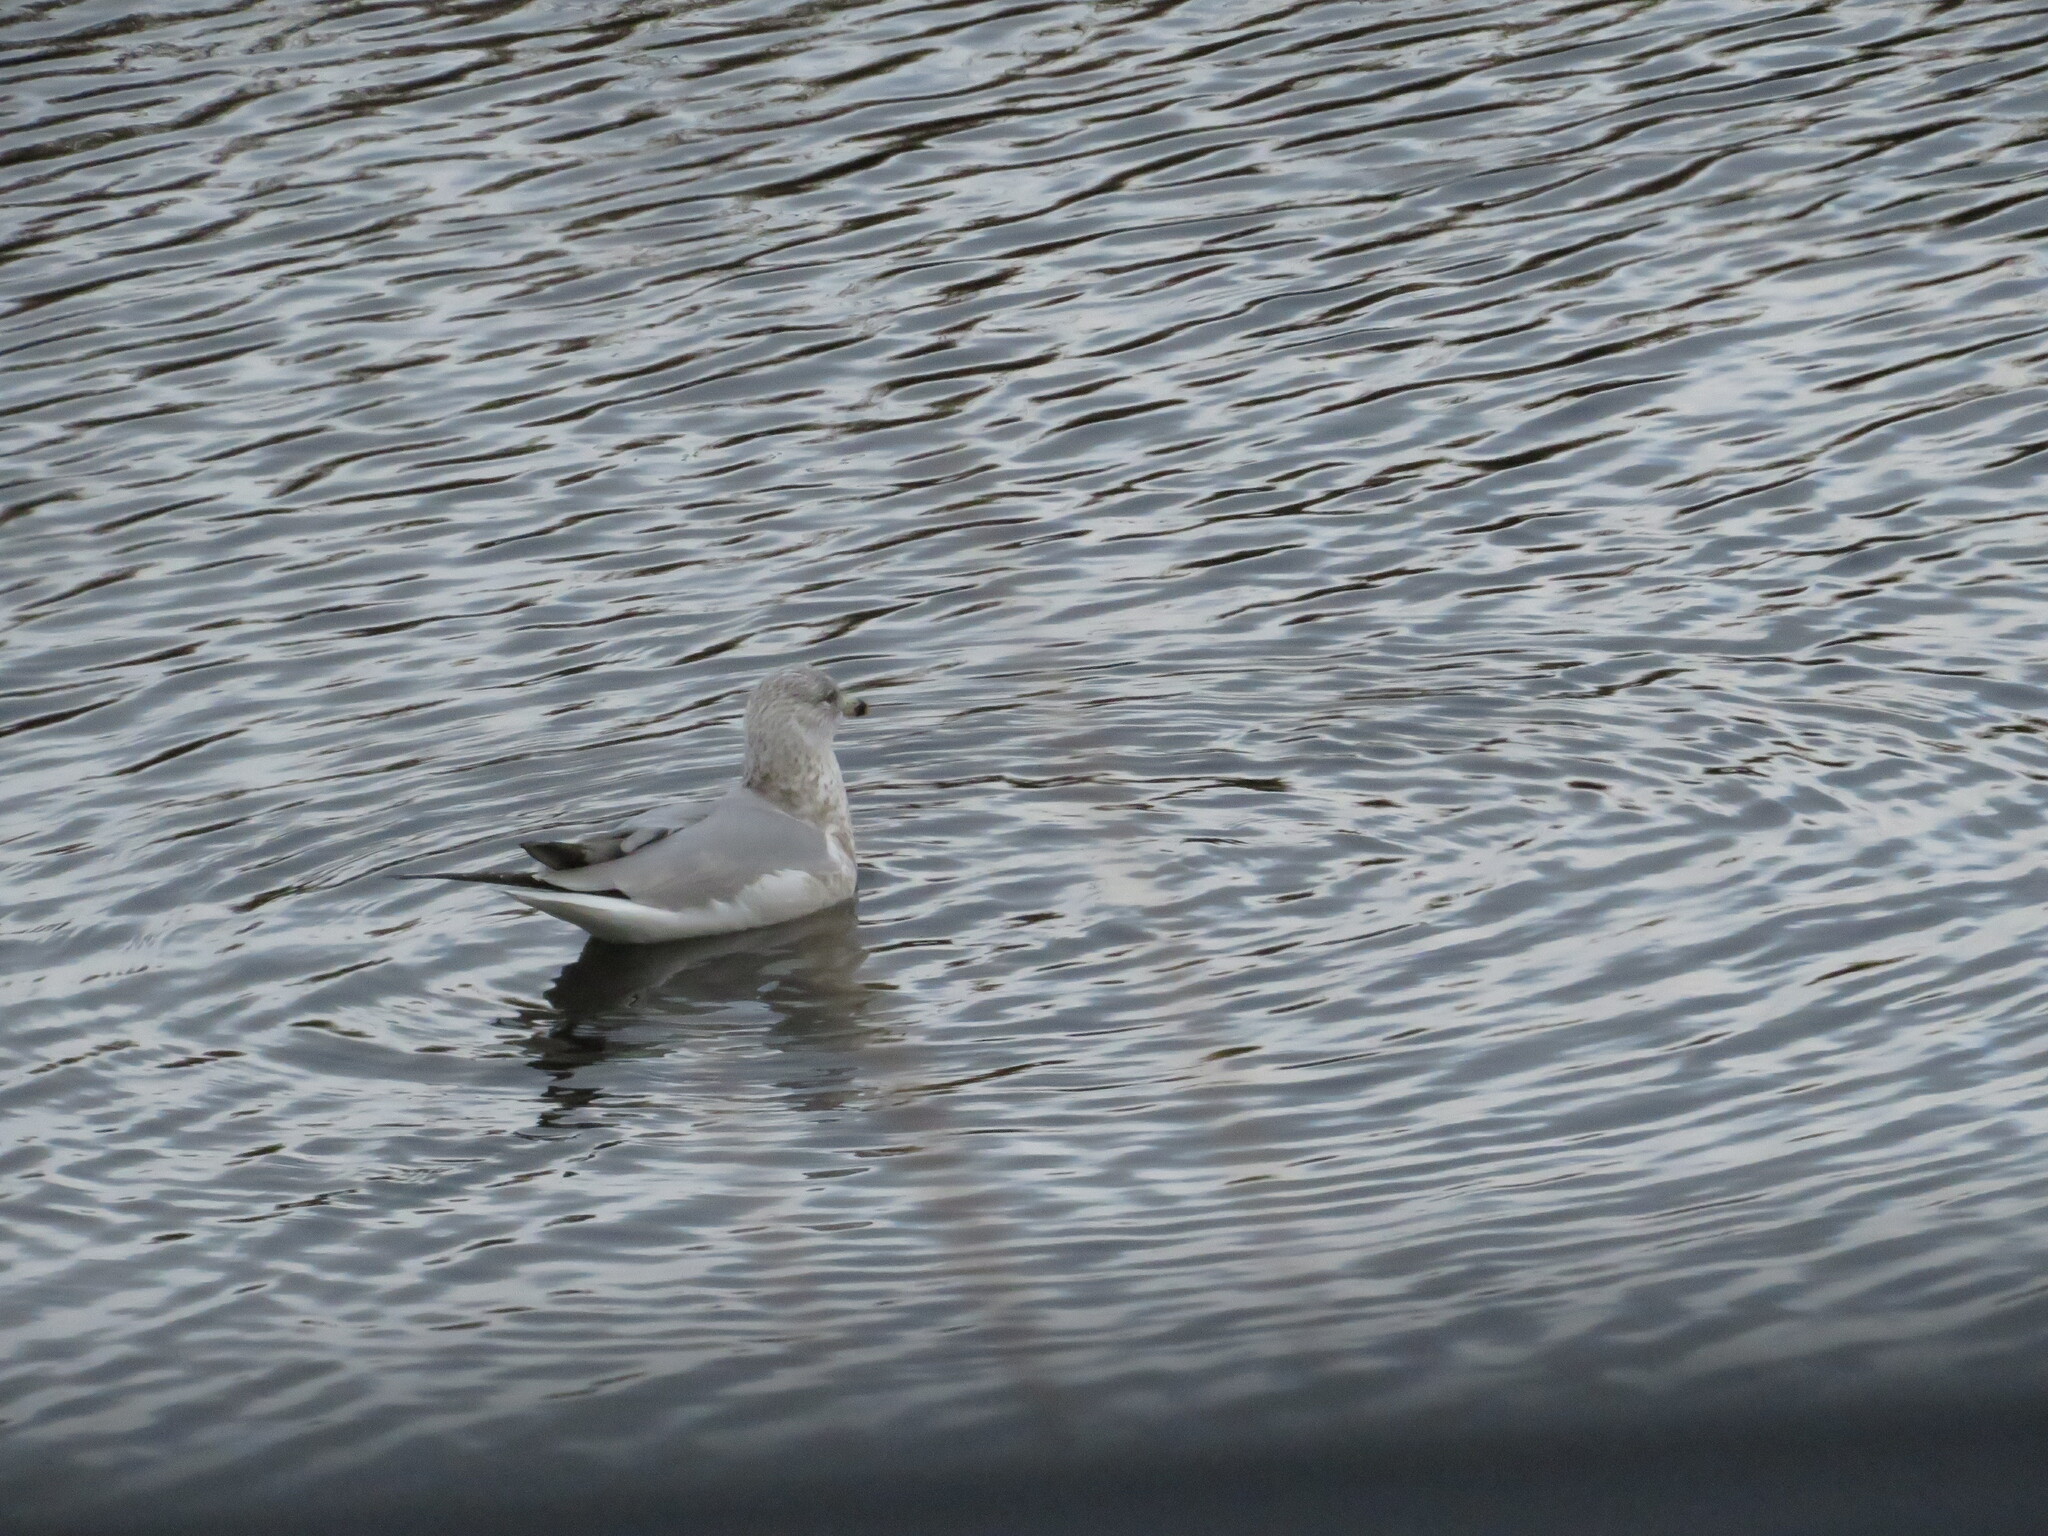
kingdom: Animalia
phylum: Chordata
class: Aves
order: Charadriiformes
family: Laridae
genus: Larus
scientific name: Larus delawarensis
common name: Ring-billed gull
